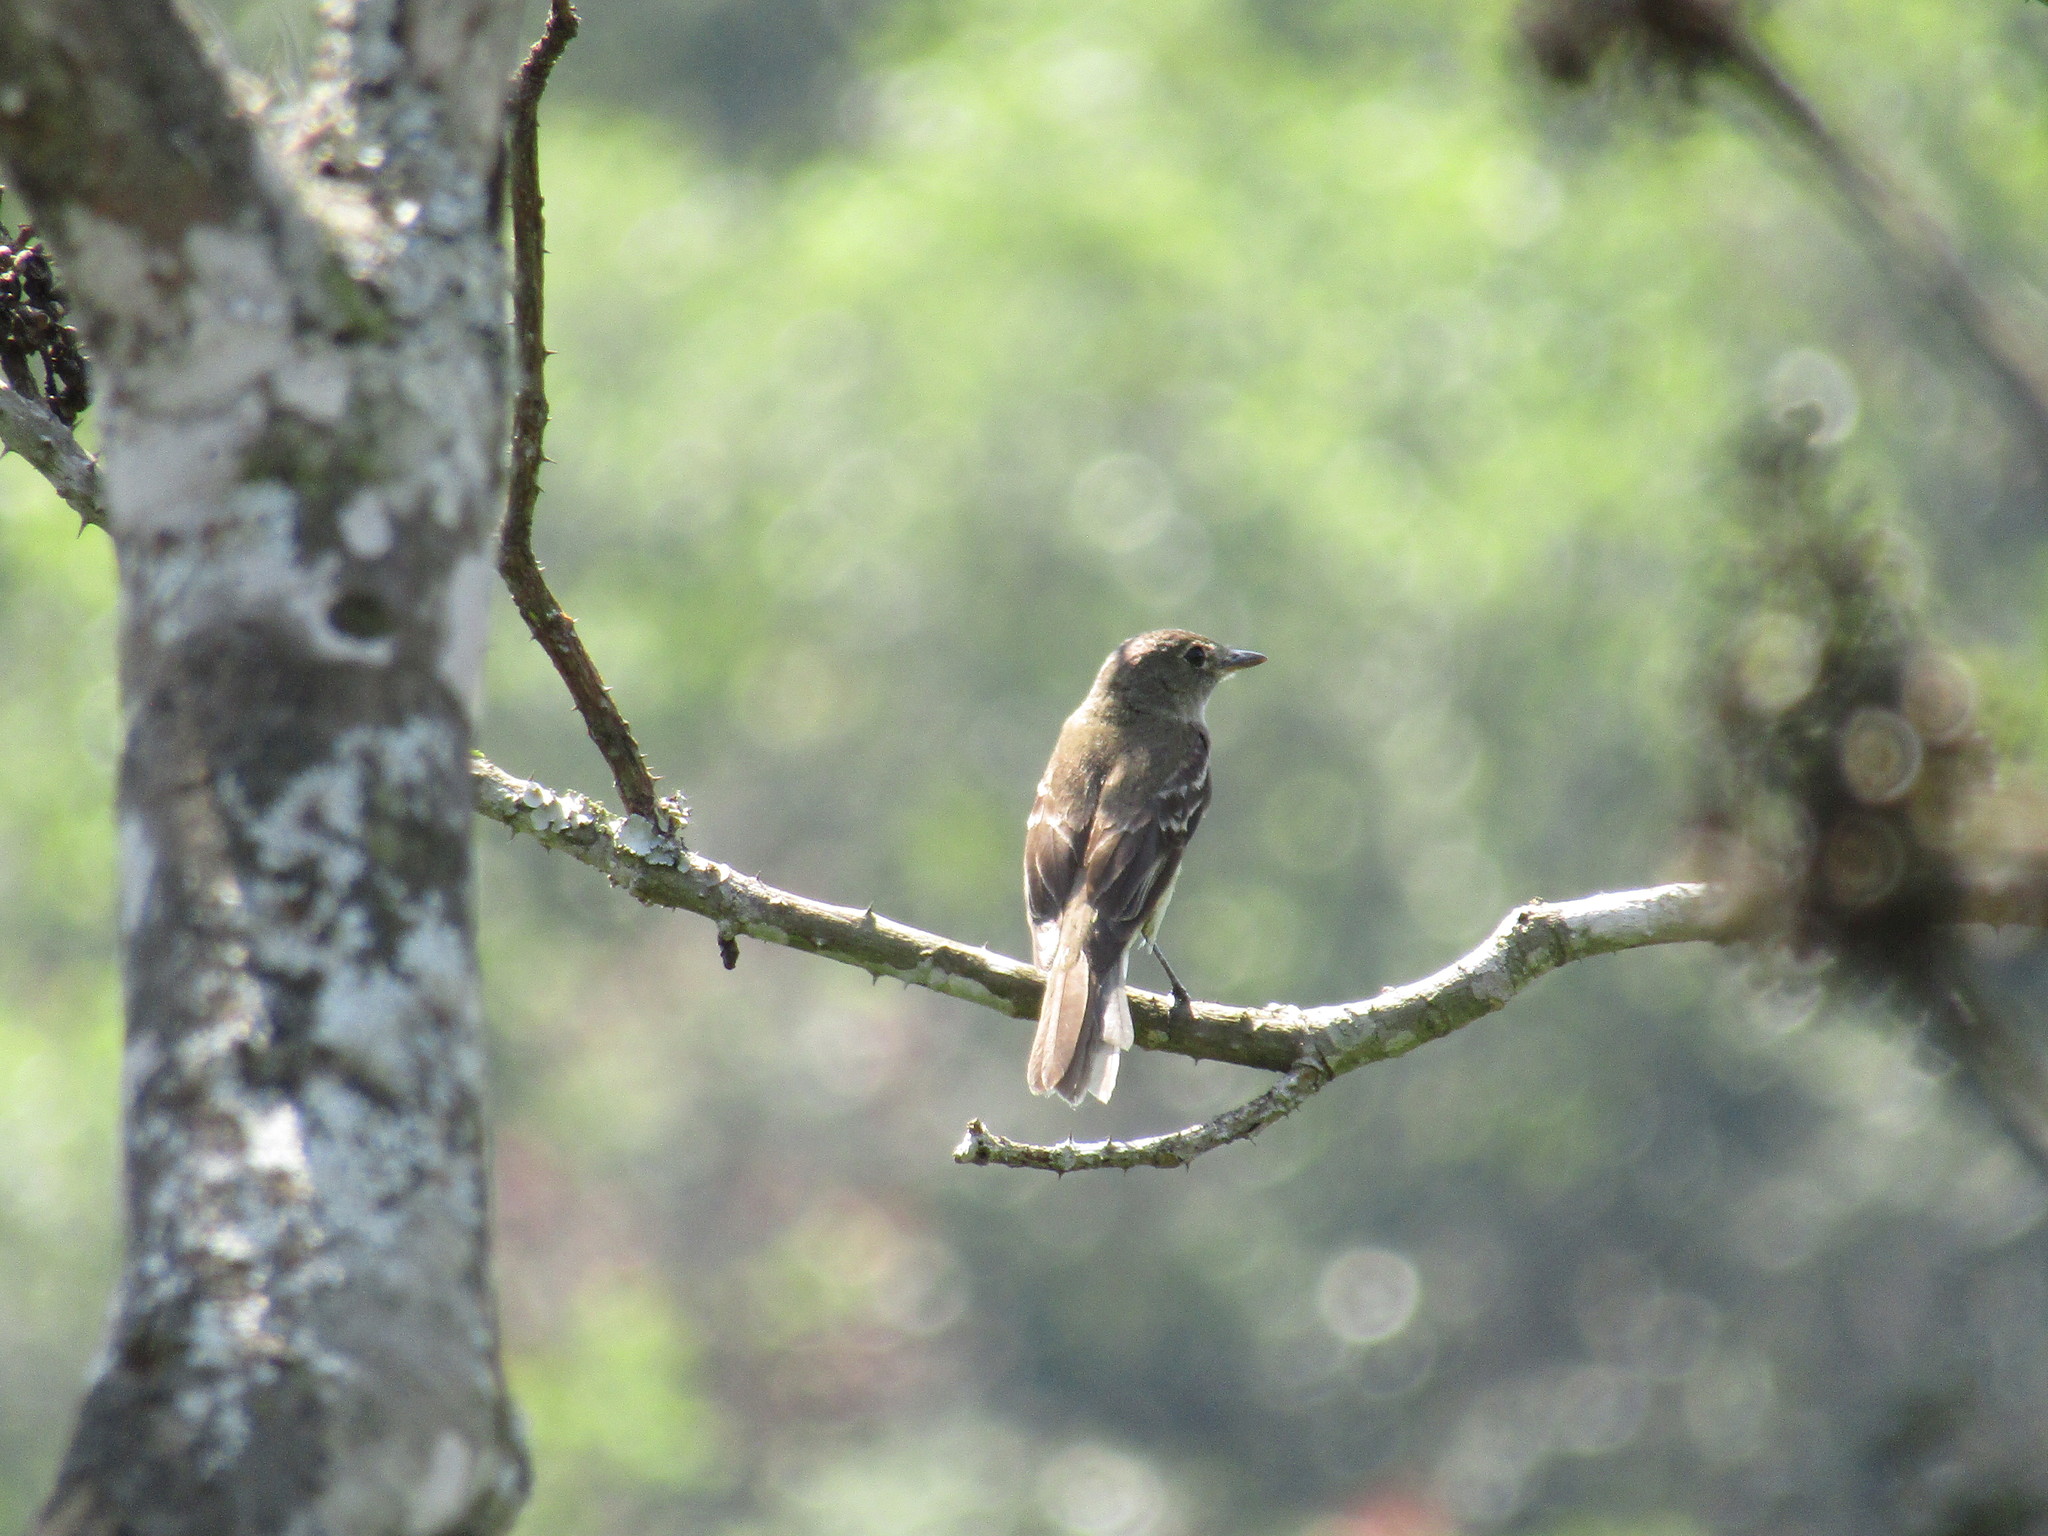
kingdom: Animalia
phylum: Chordata
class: Aves
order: Passeriformes
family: Tyrannidae
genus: Empidonax
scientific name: Empidonax
